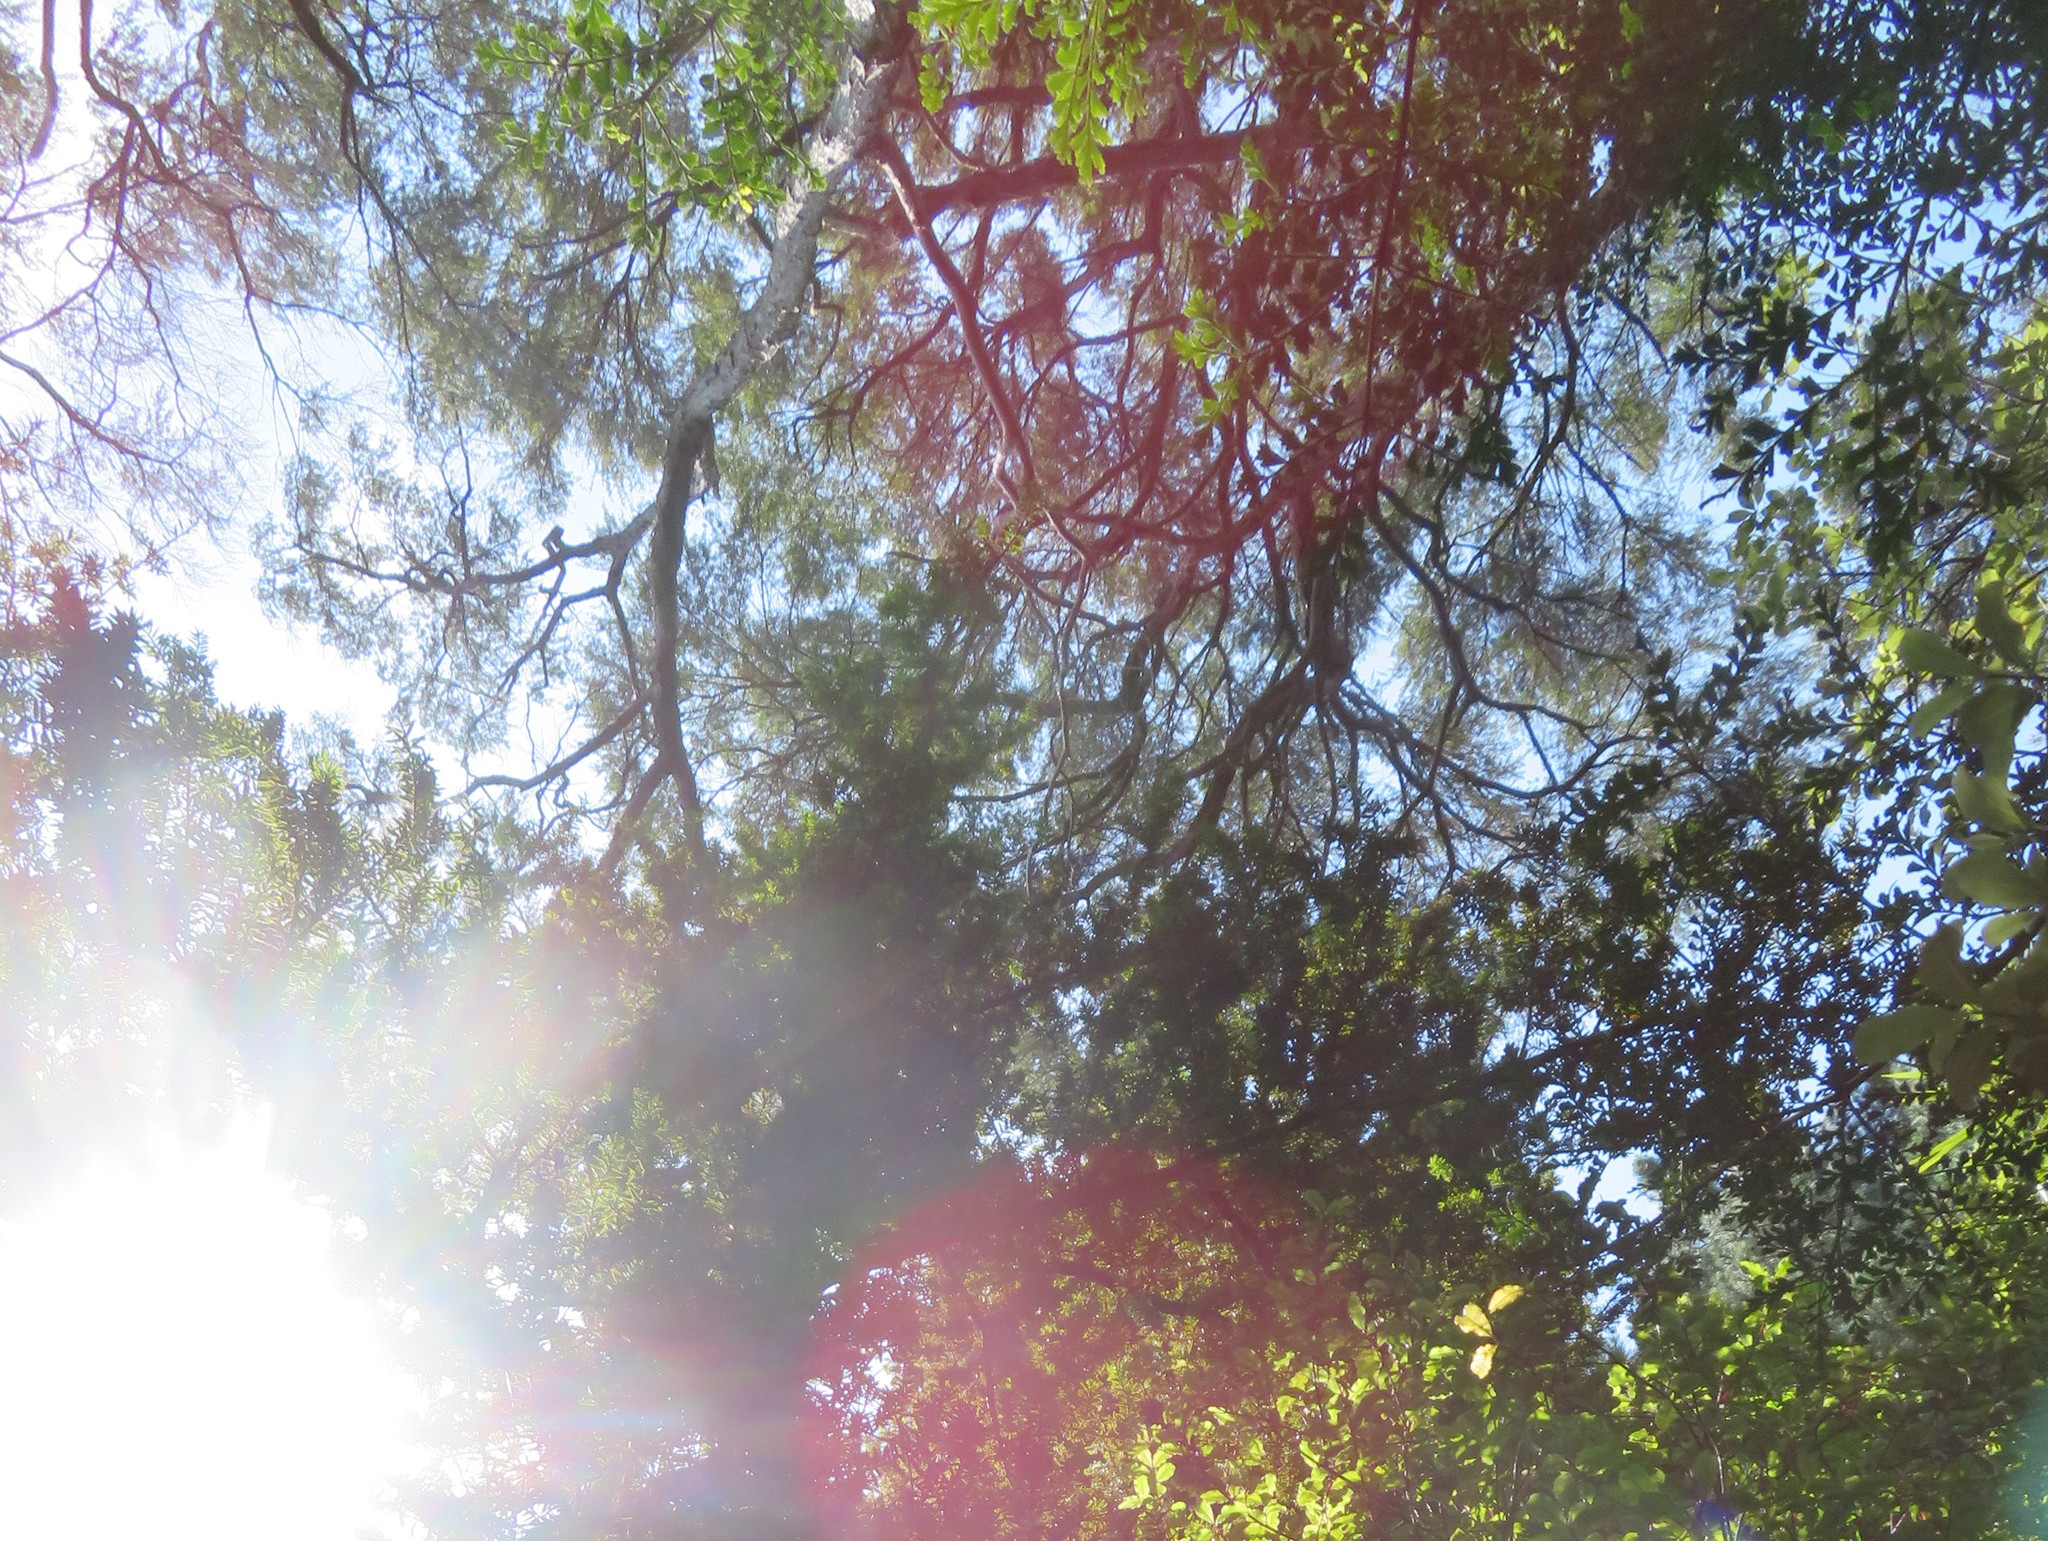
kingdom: Plantae
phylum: Tracheophyta
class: Pinopsida
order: Pinales
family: Podocarpaceae
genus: Podocarpus
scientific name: Podocarpus totara
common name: Totara
